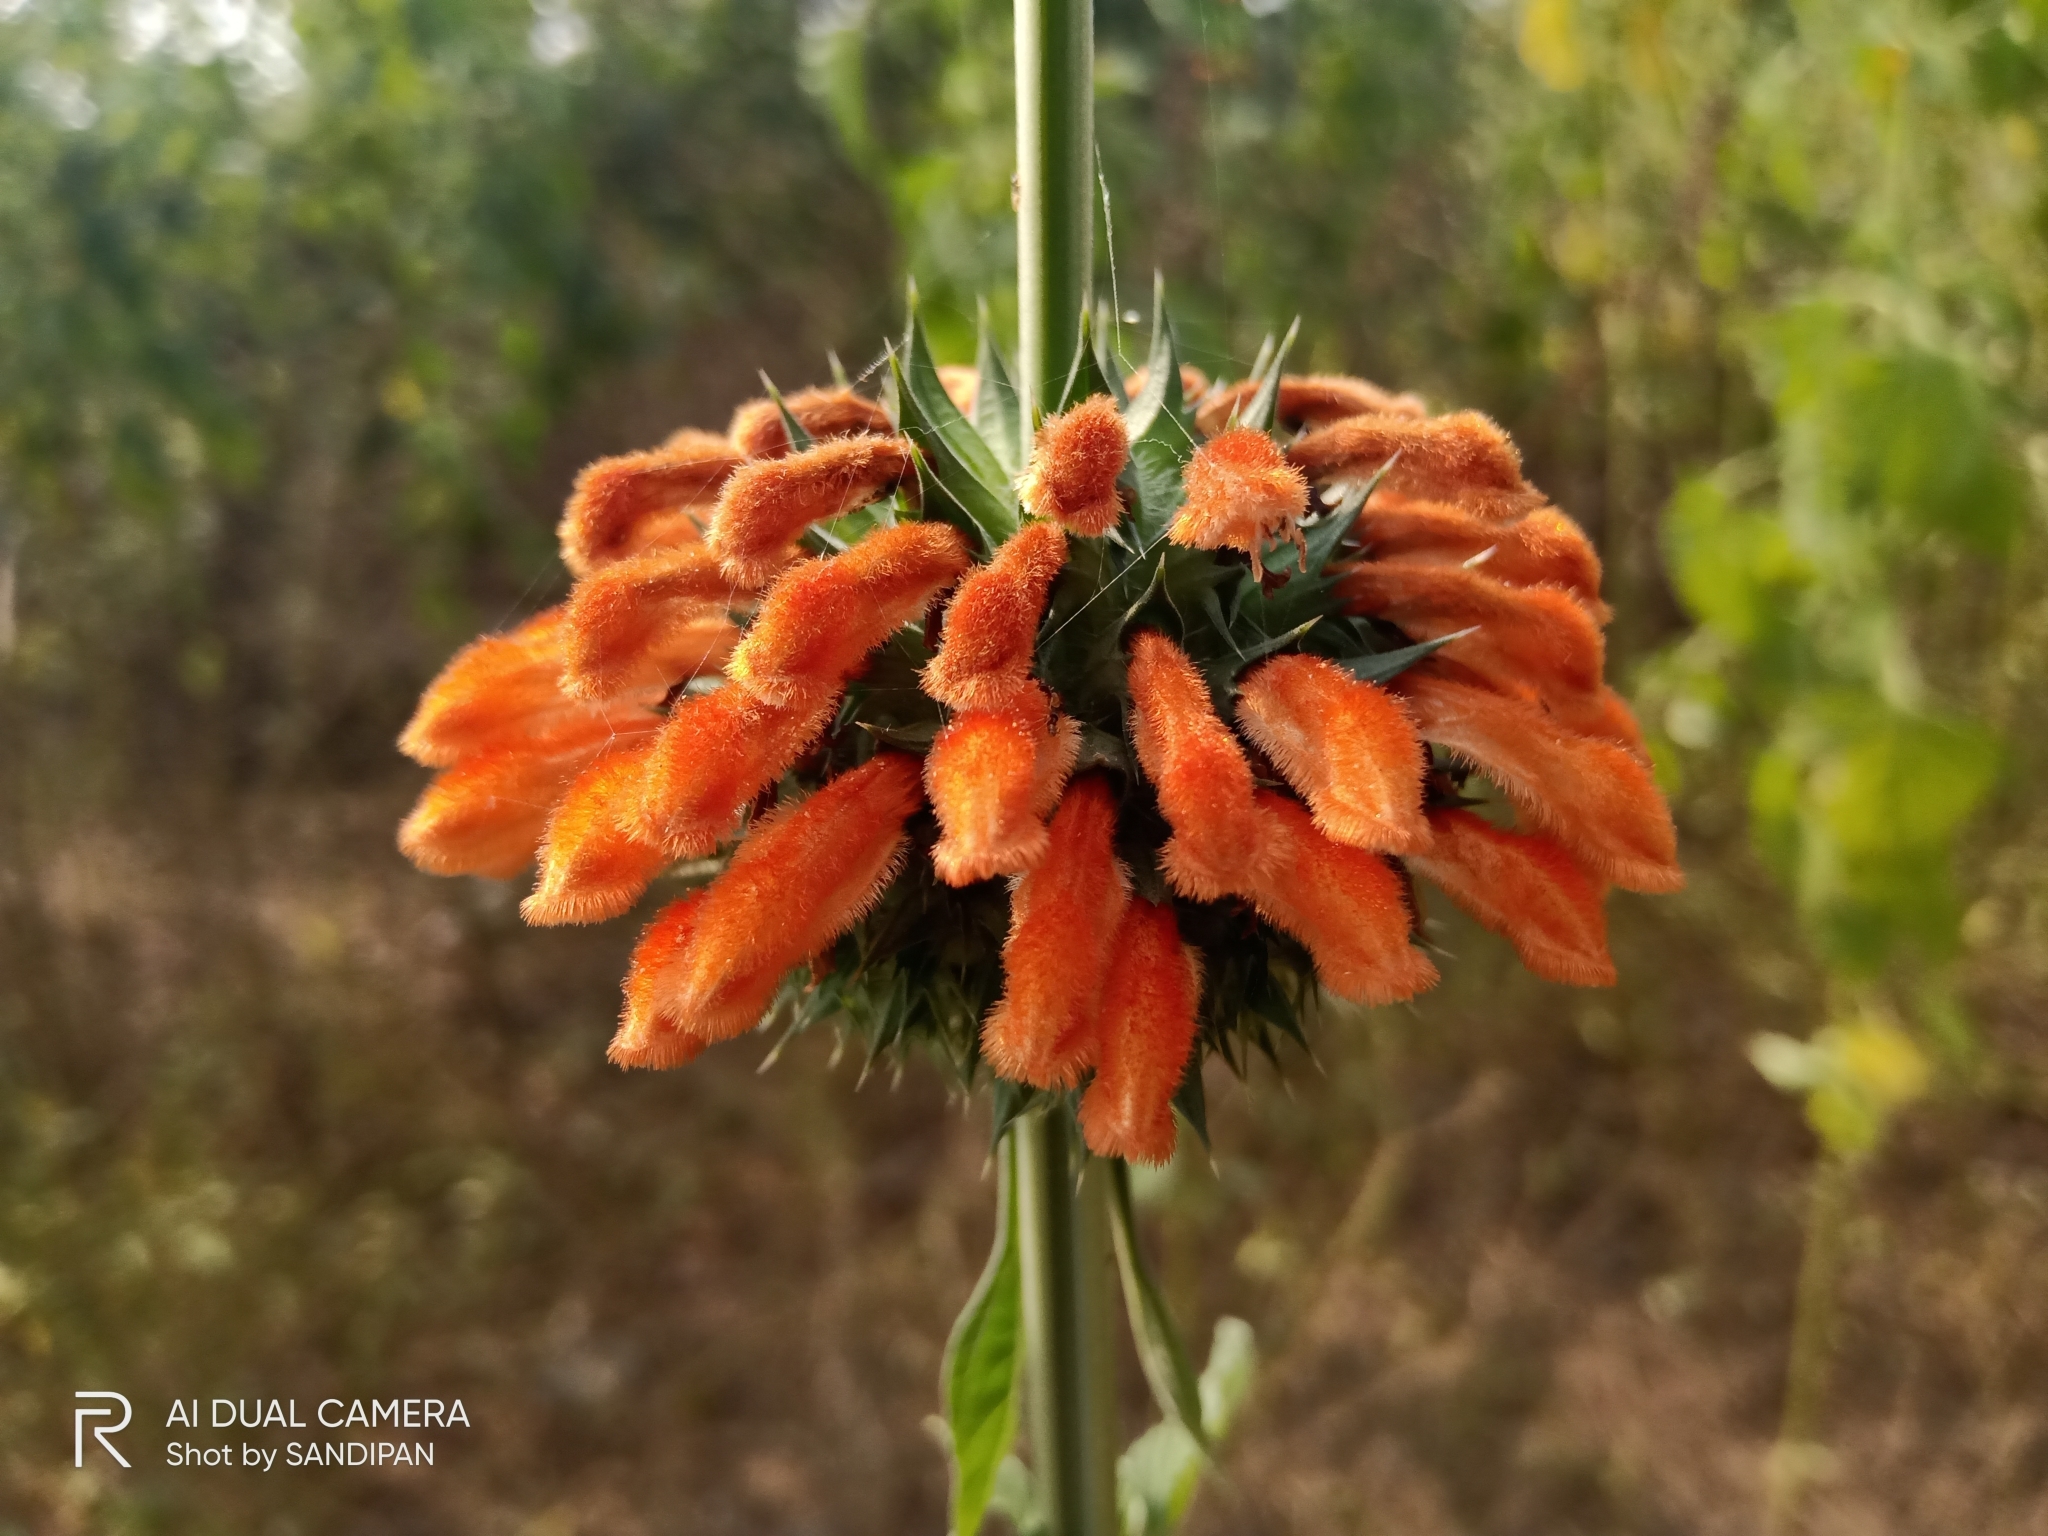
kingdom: Plantae
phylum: Tracheophyta
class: Magnoliopsida
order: Lamiales
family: Lamiaceae
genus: Leonotis
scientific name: Leonotis nepetifolia
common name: Christmas candlestick
